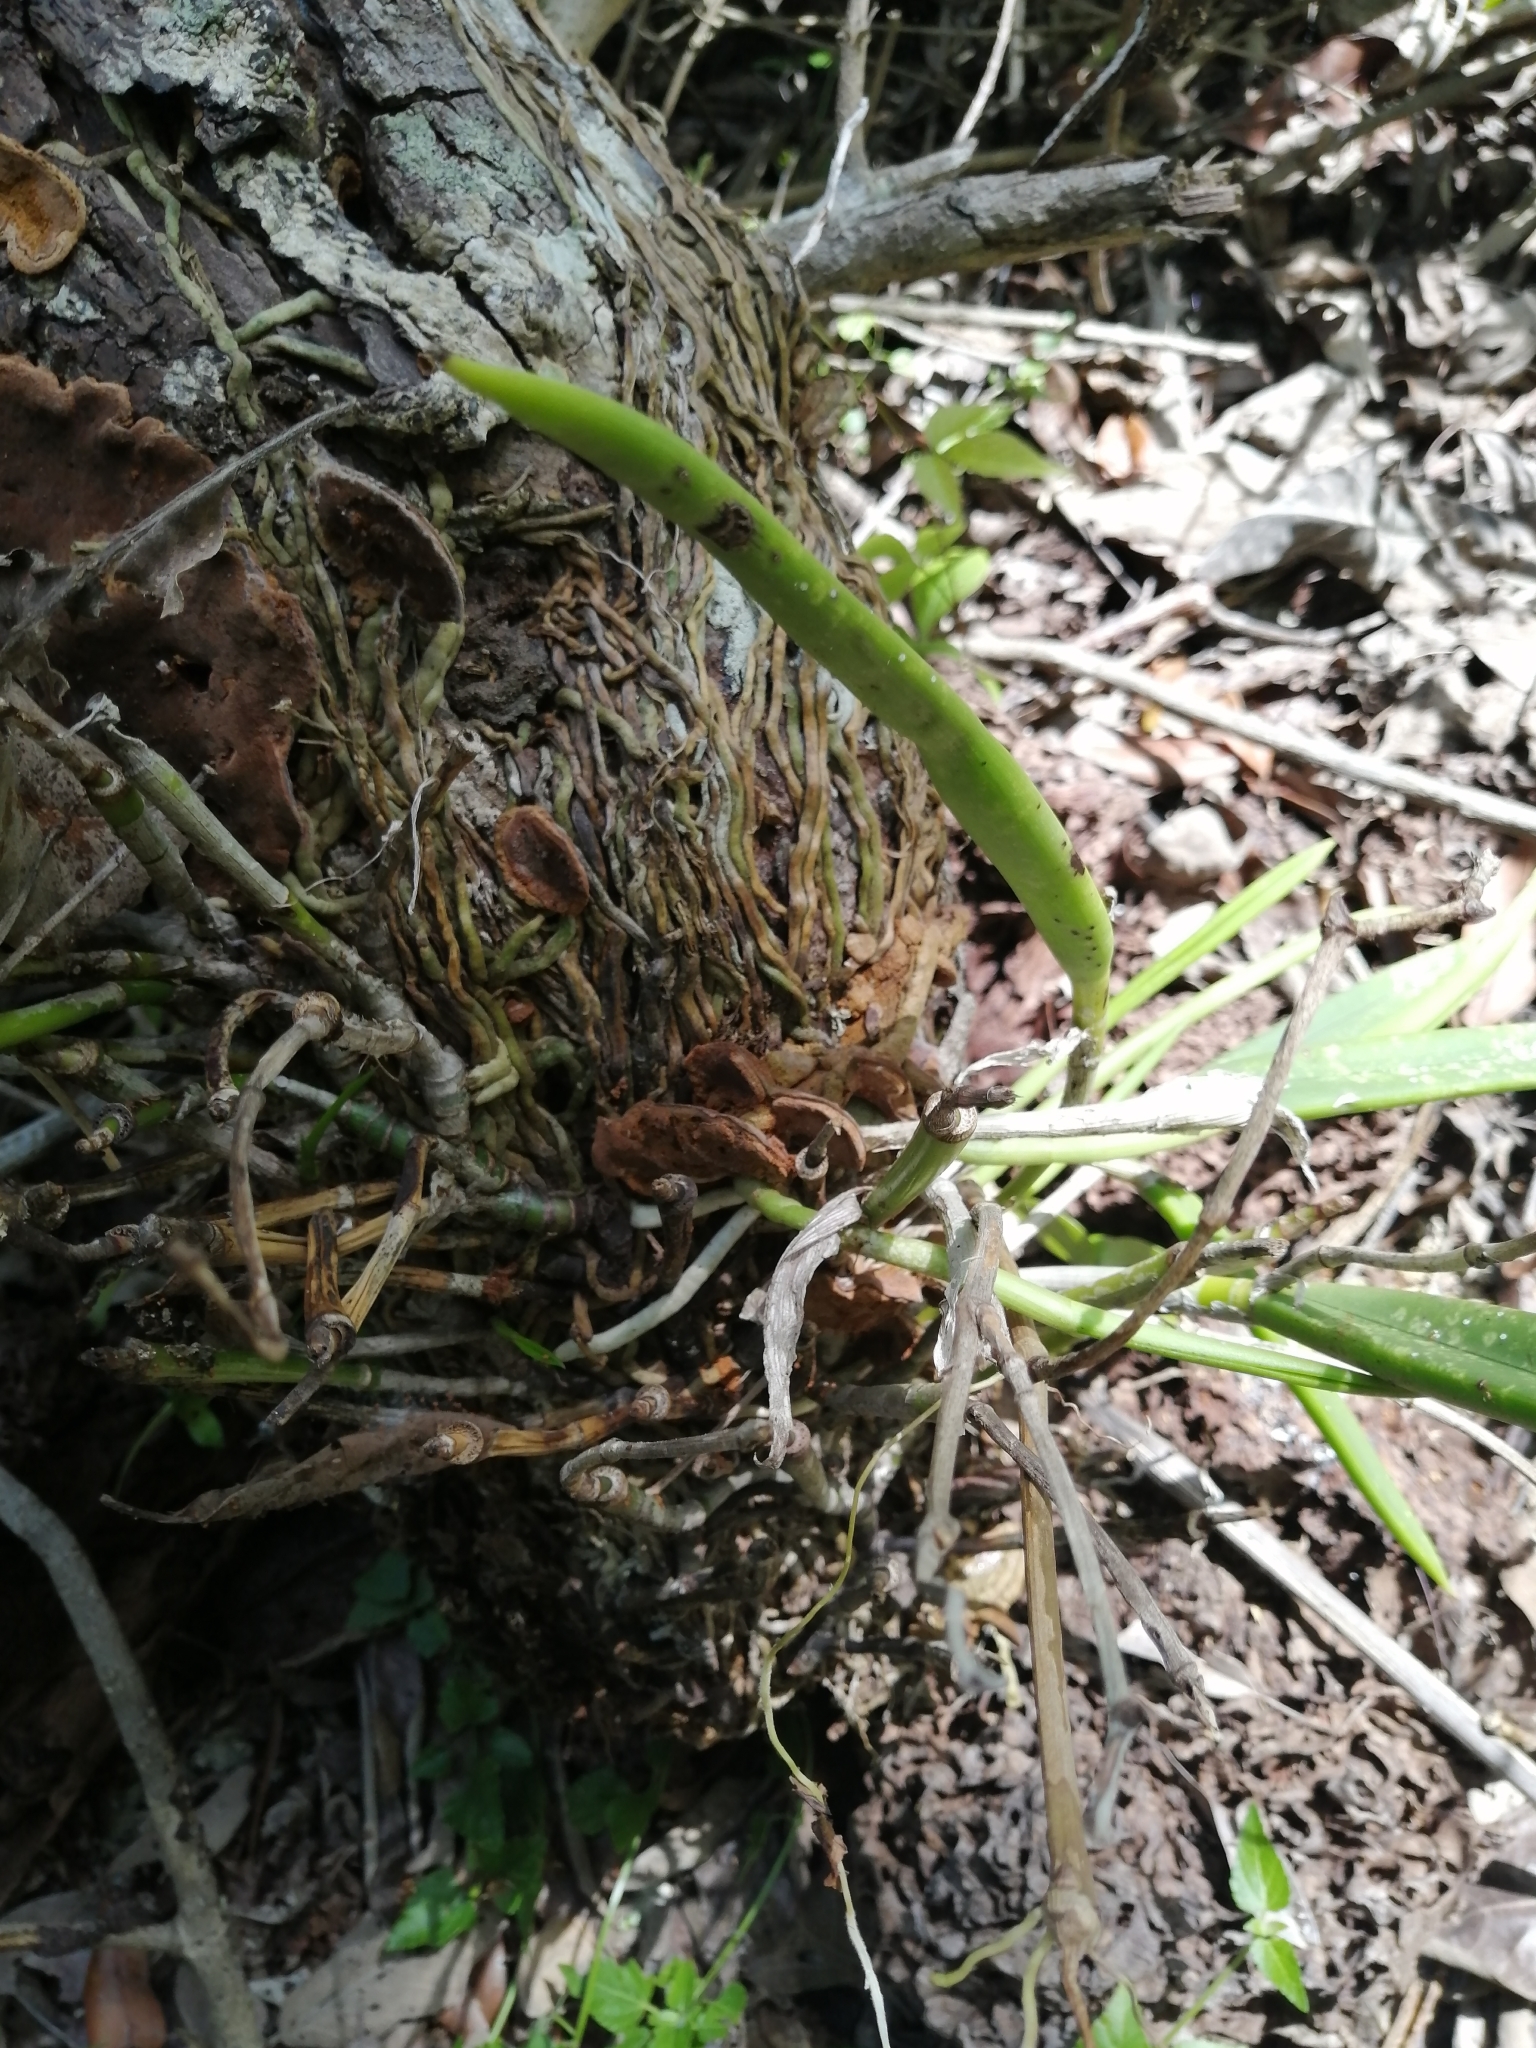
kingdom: Plantae
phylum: Tracheophyta
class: Liliopsida
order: Asparagales
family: Orchidaceae
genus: Brassavola
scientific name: Brassavola nodosa
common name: Lady of the night
